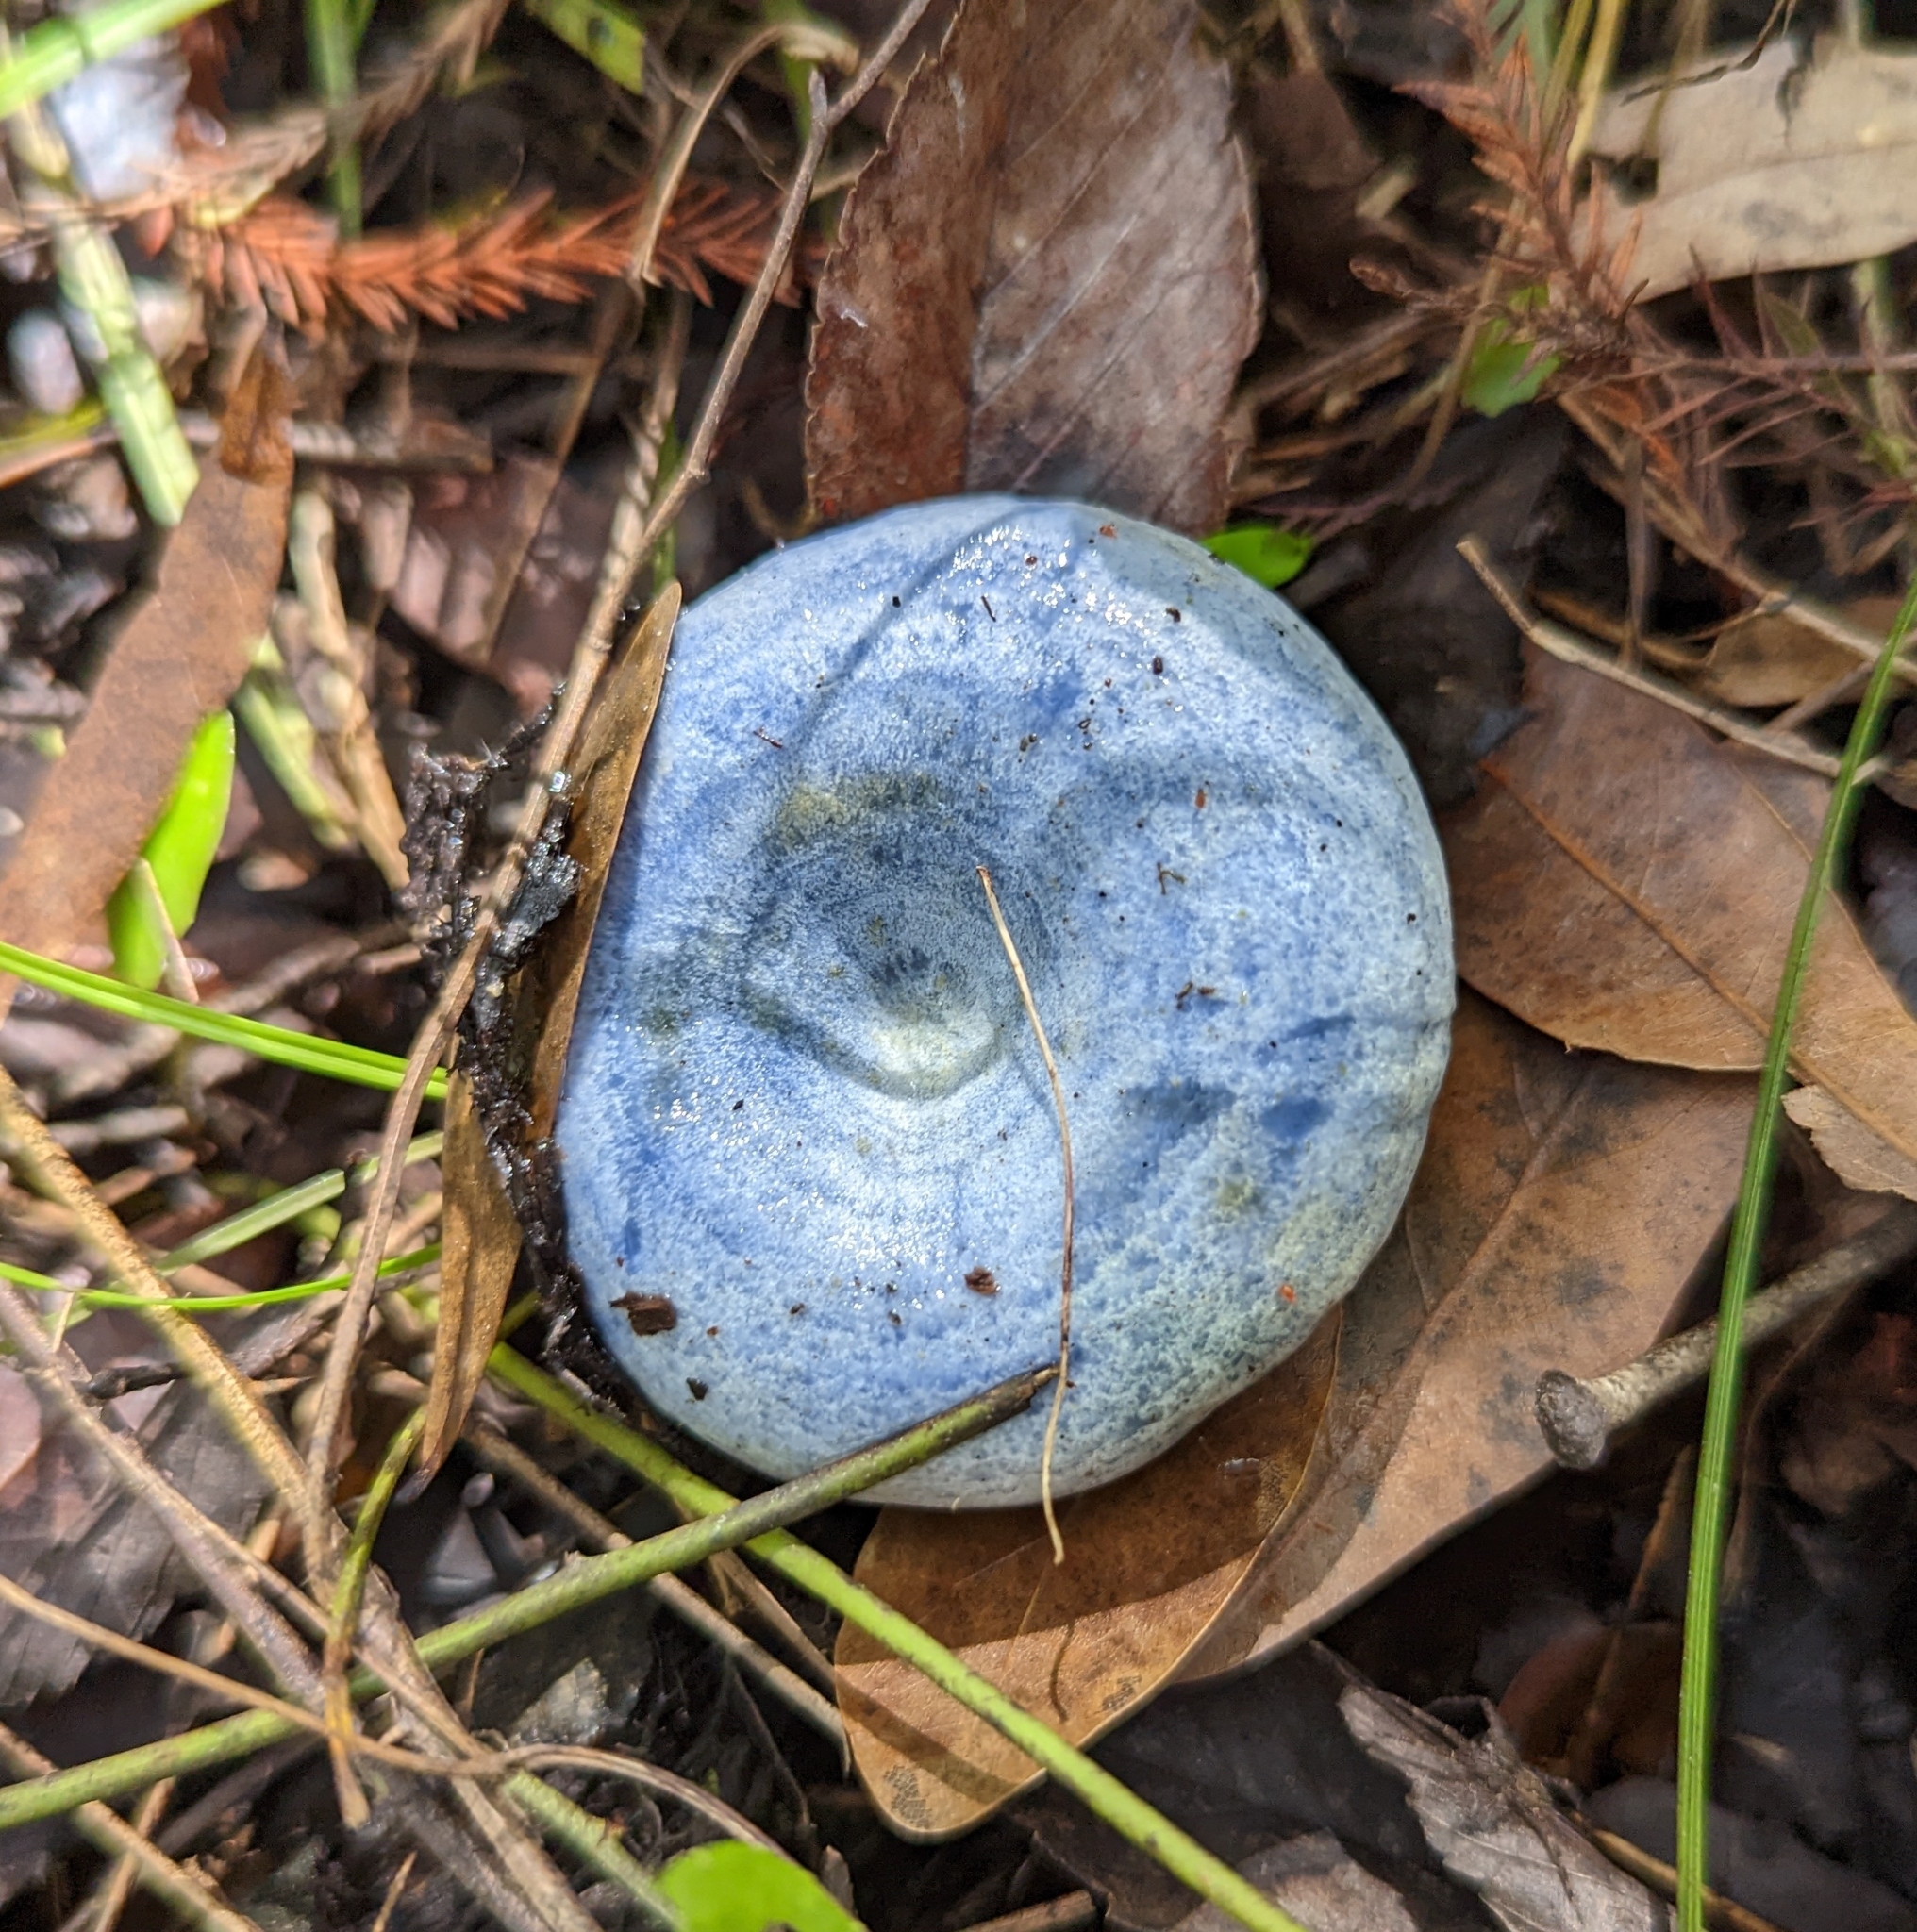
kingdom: Fungi
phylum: Basidiomycota
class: Agaricomycetes
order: Russulales
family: Russulaceae
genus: Lactarius
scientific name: Lactarius indigo
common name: Indigo milk cap
